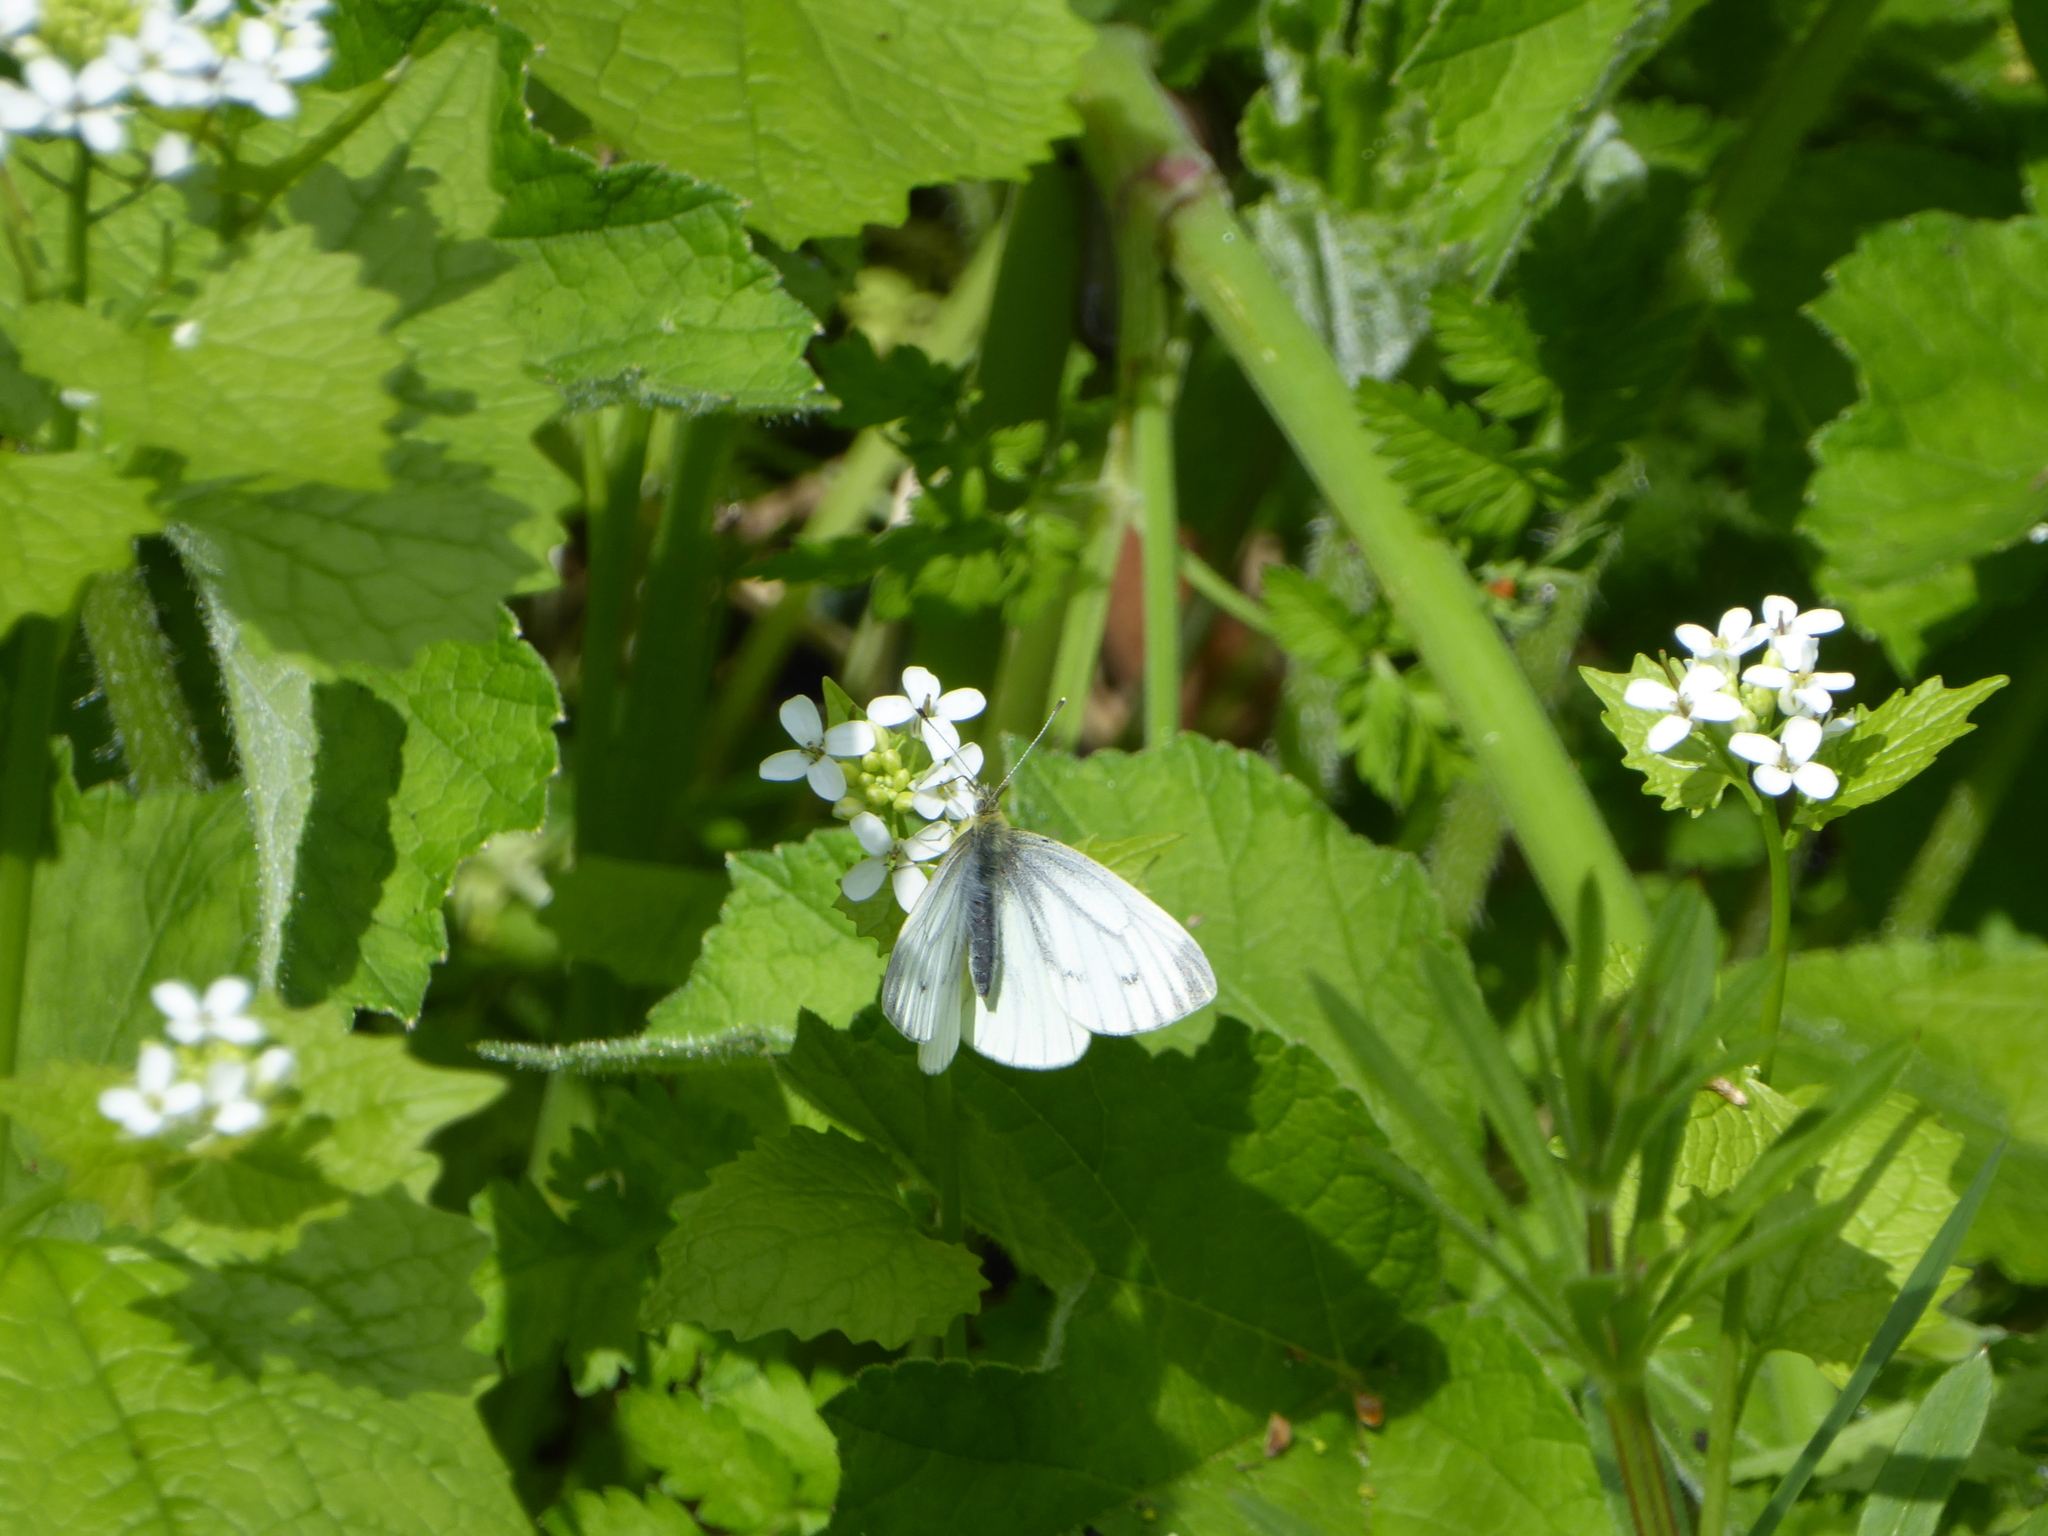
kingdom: Animalia
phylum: Arthropoda
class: Insecta
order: Lepidoptera
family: Pieridae
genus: Pieris
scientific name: Pieris napi
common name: Green-veined white
